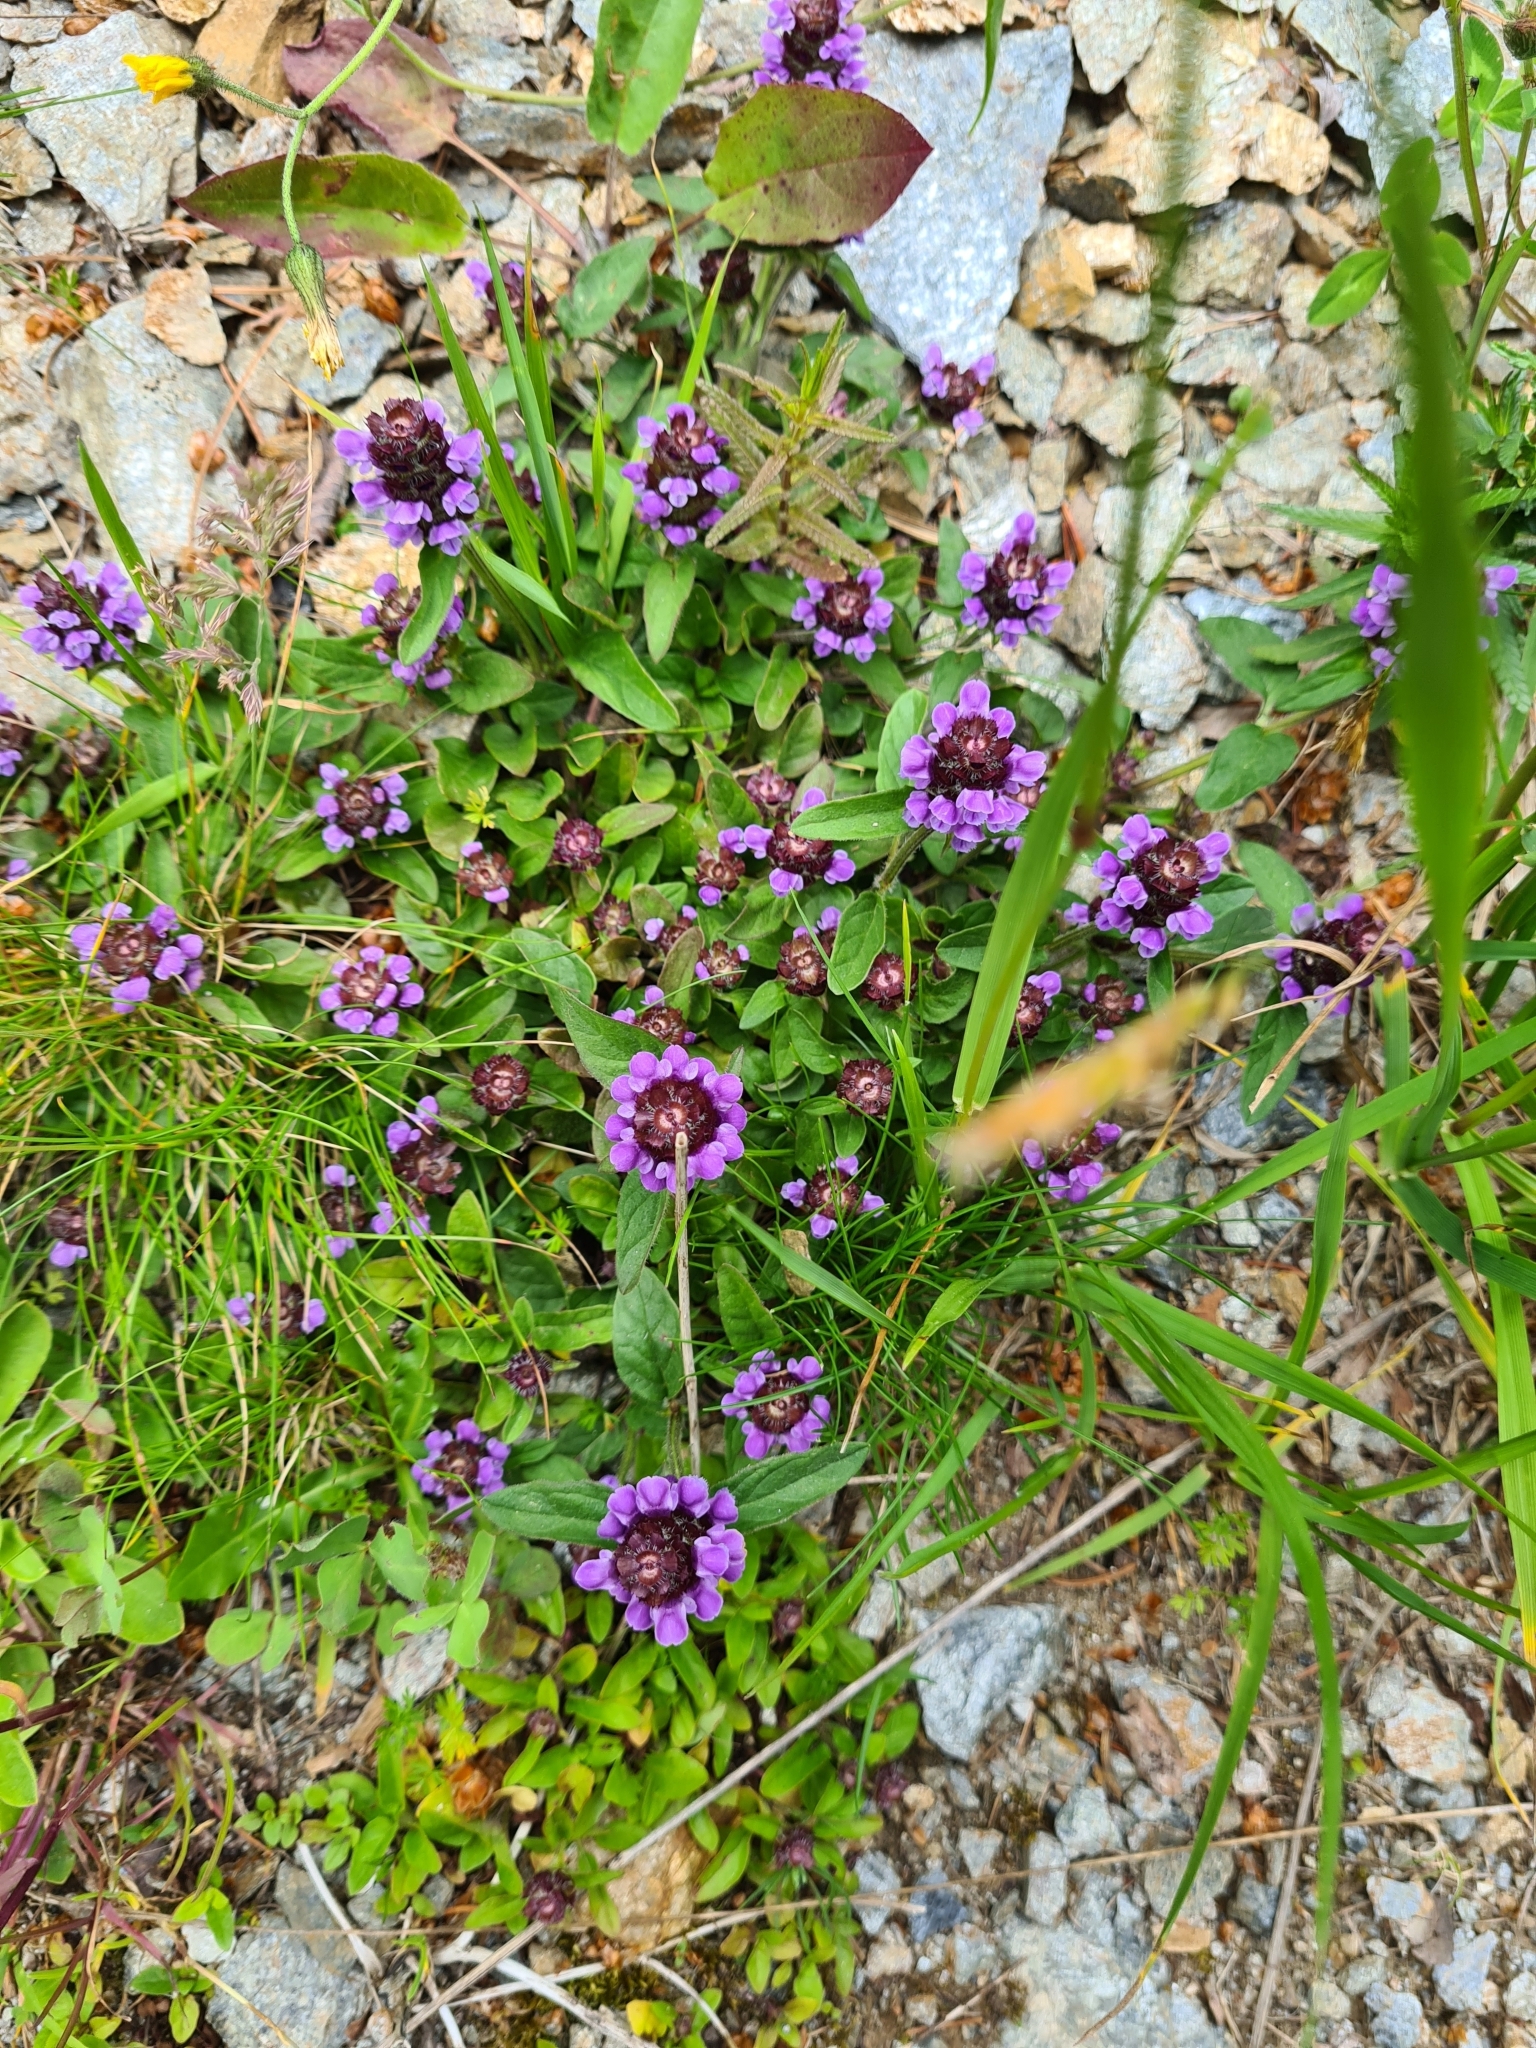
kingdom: Plantae
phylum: Tracheophyta
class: Magnoliopsida
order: Lamiales
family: Lamiaceae
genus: Prunella
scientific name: Prunella vulgaris
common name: Heal-all
